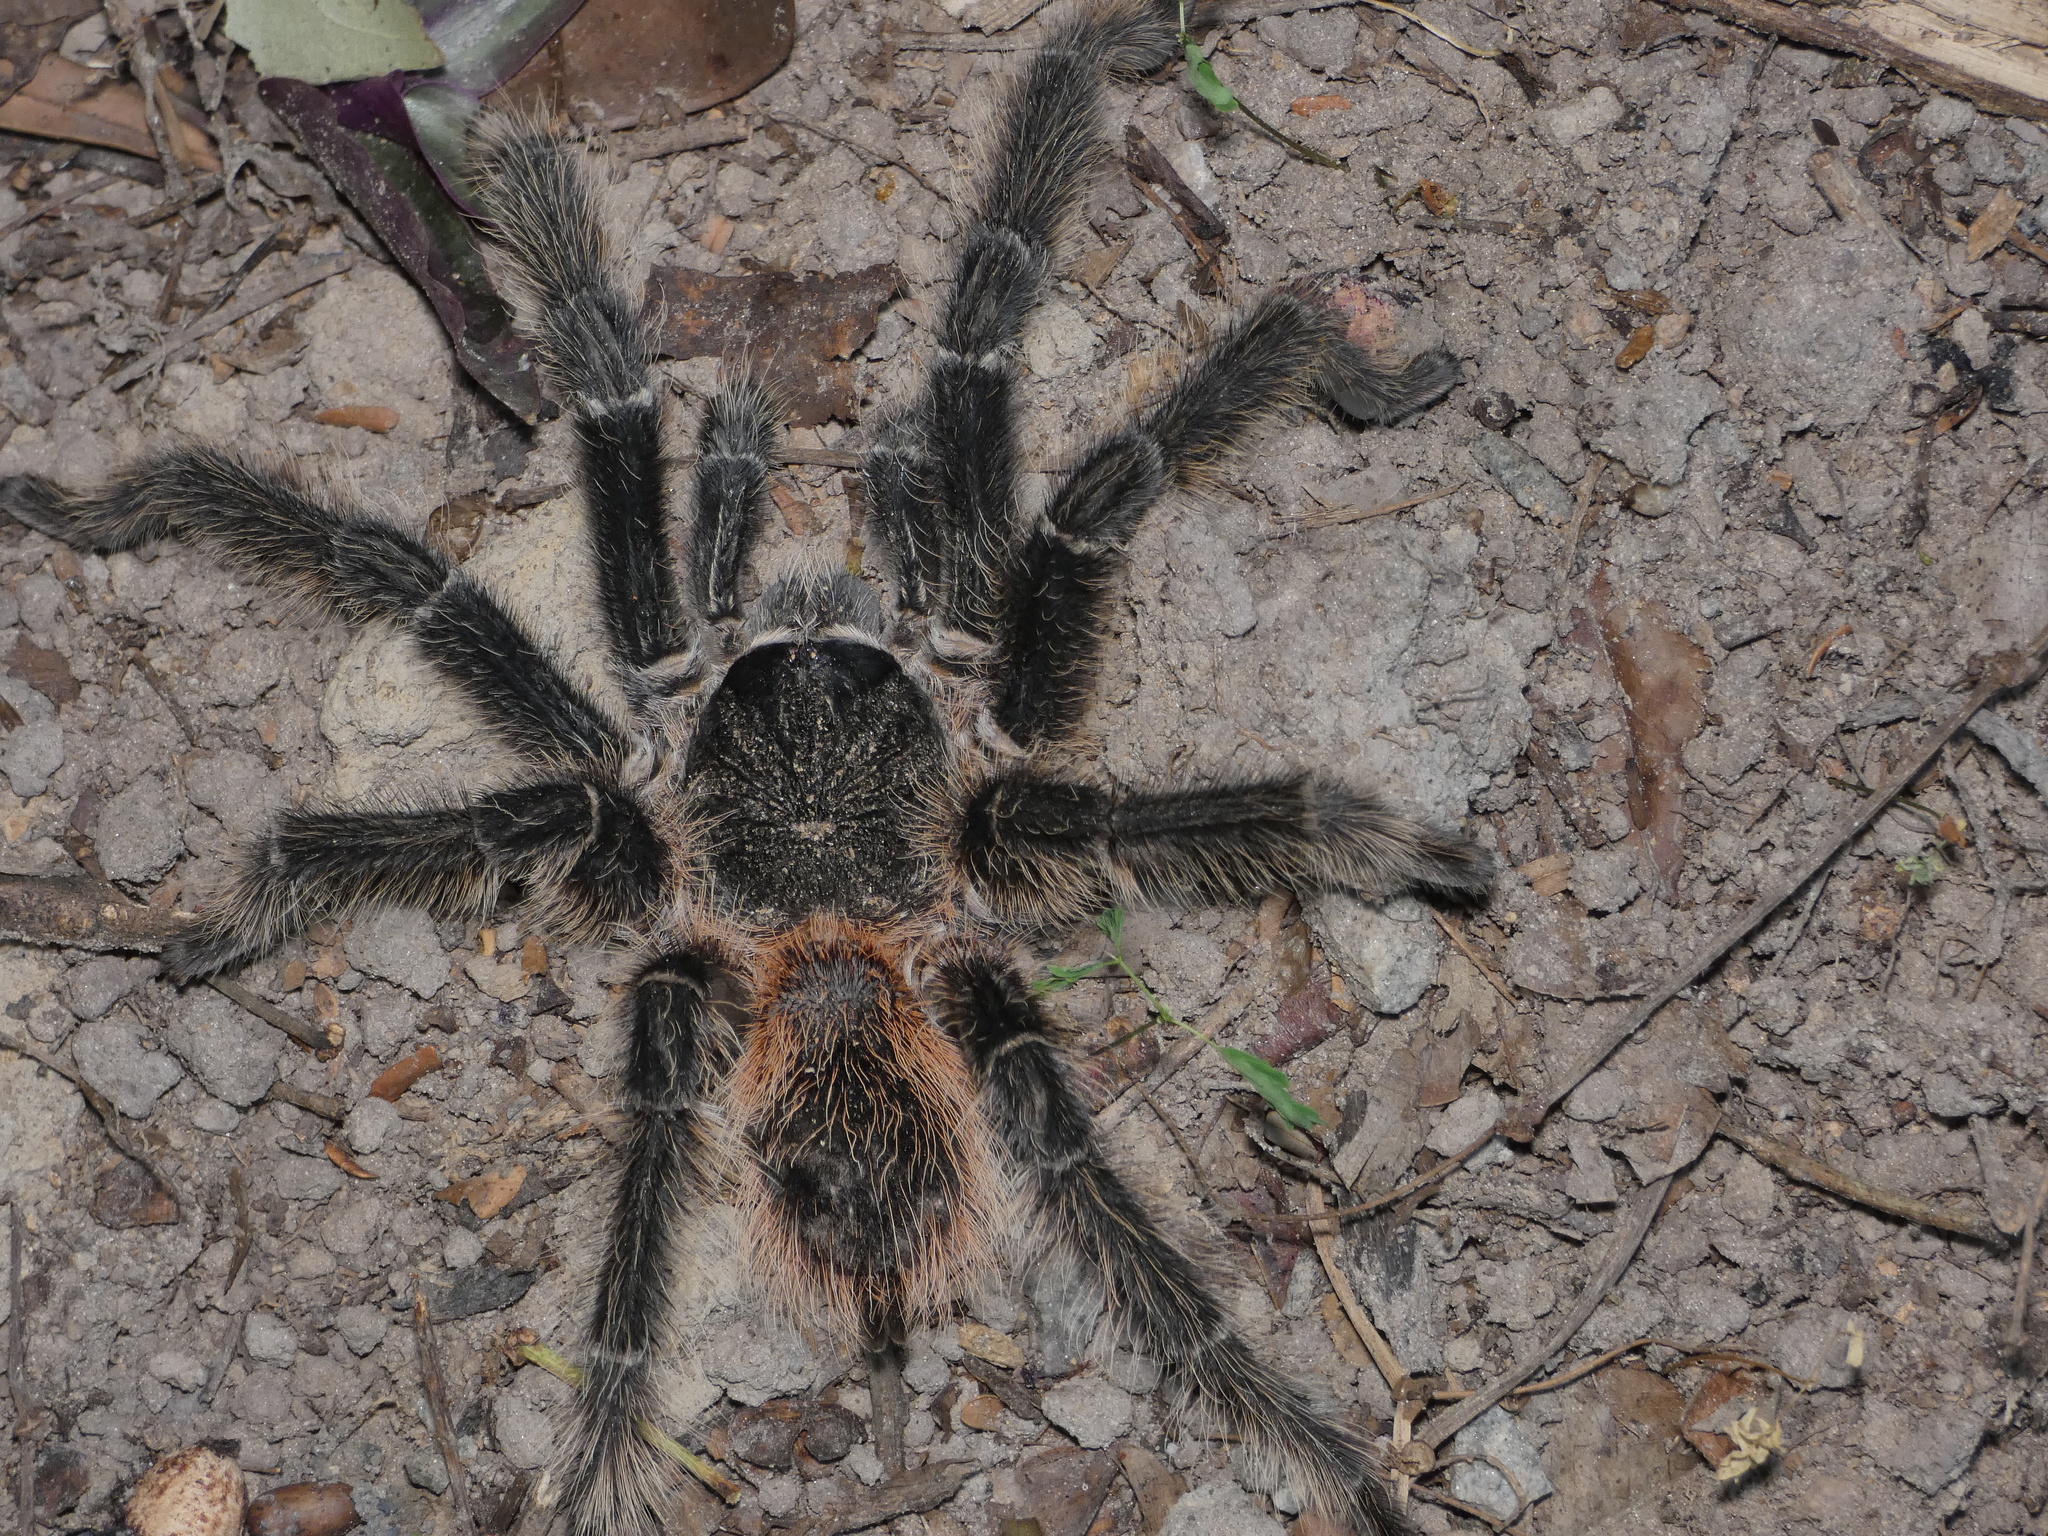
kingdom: Animalia
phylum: Arthropoda
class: Arachnida
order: Araneae
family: Theraphosidae
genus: Lasiodora
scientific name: Lasiodora parahybana
